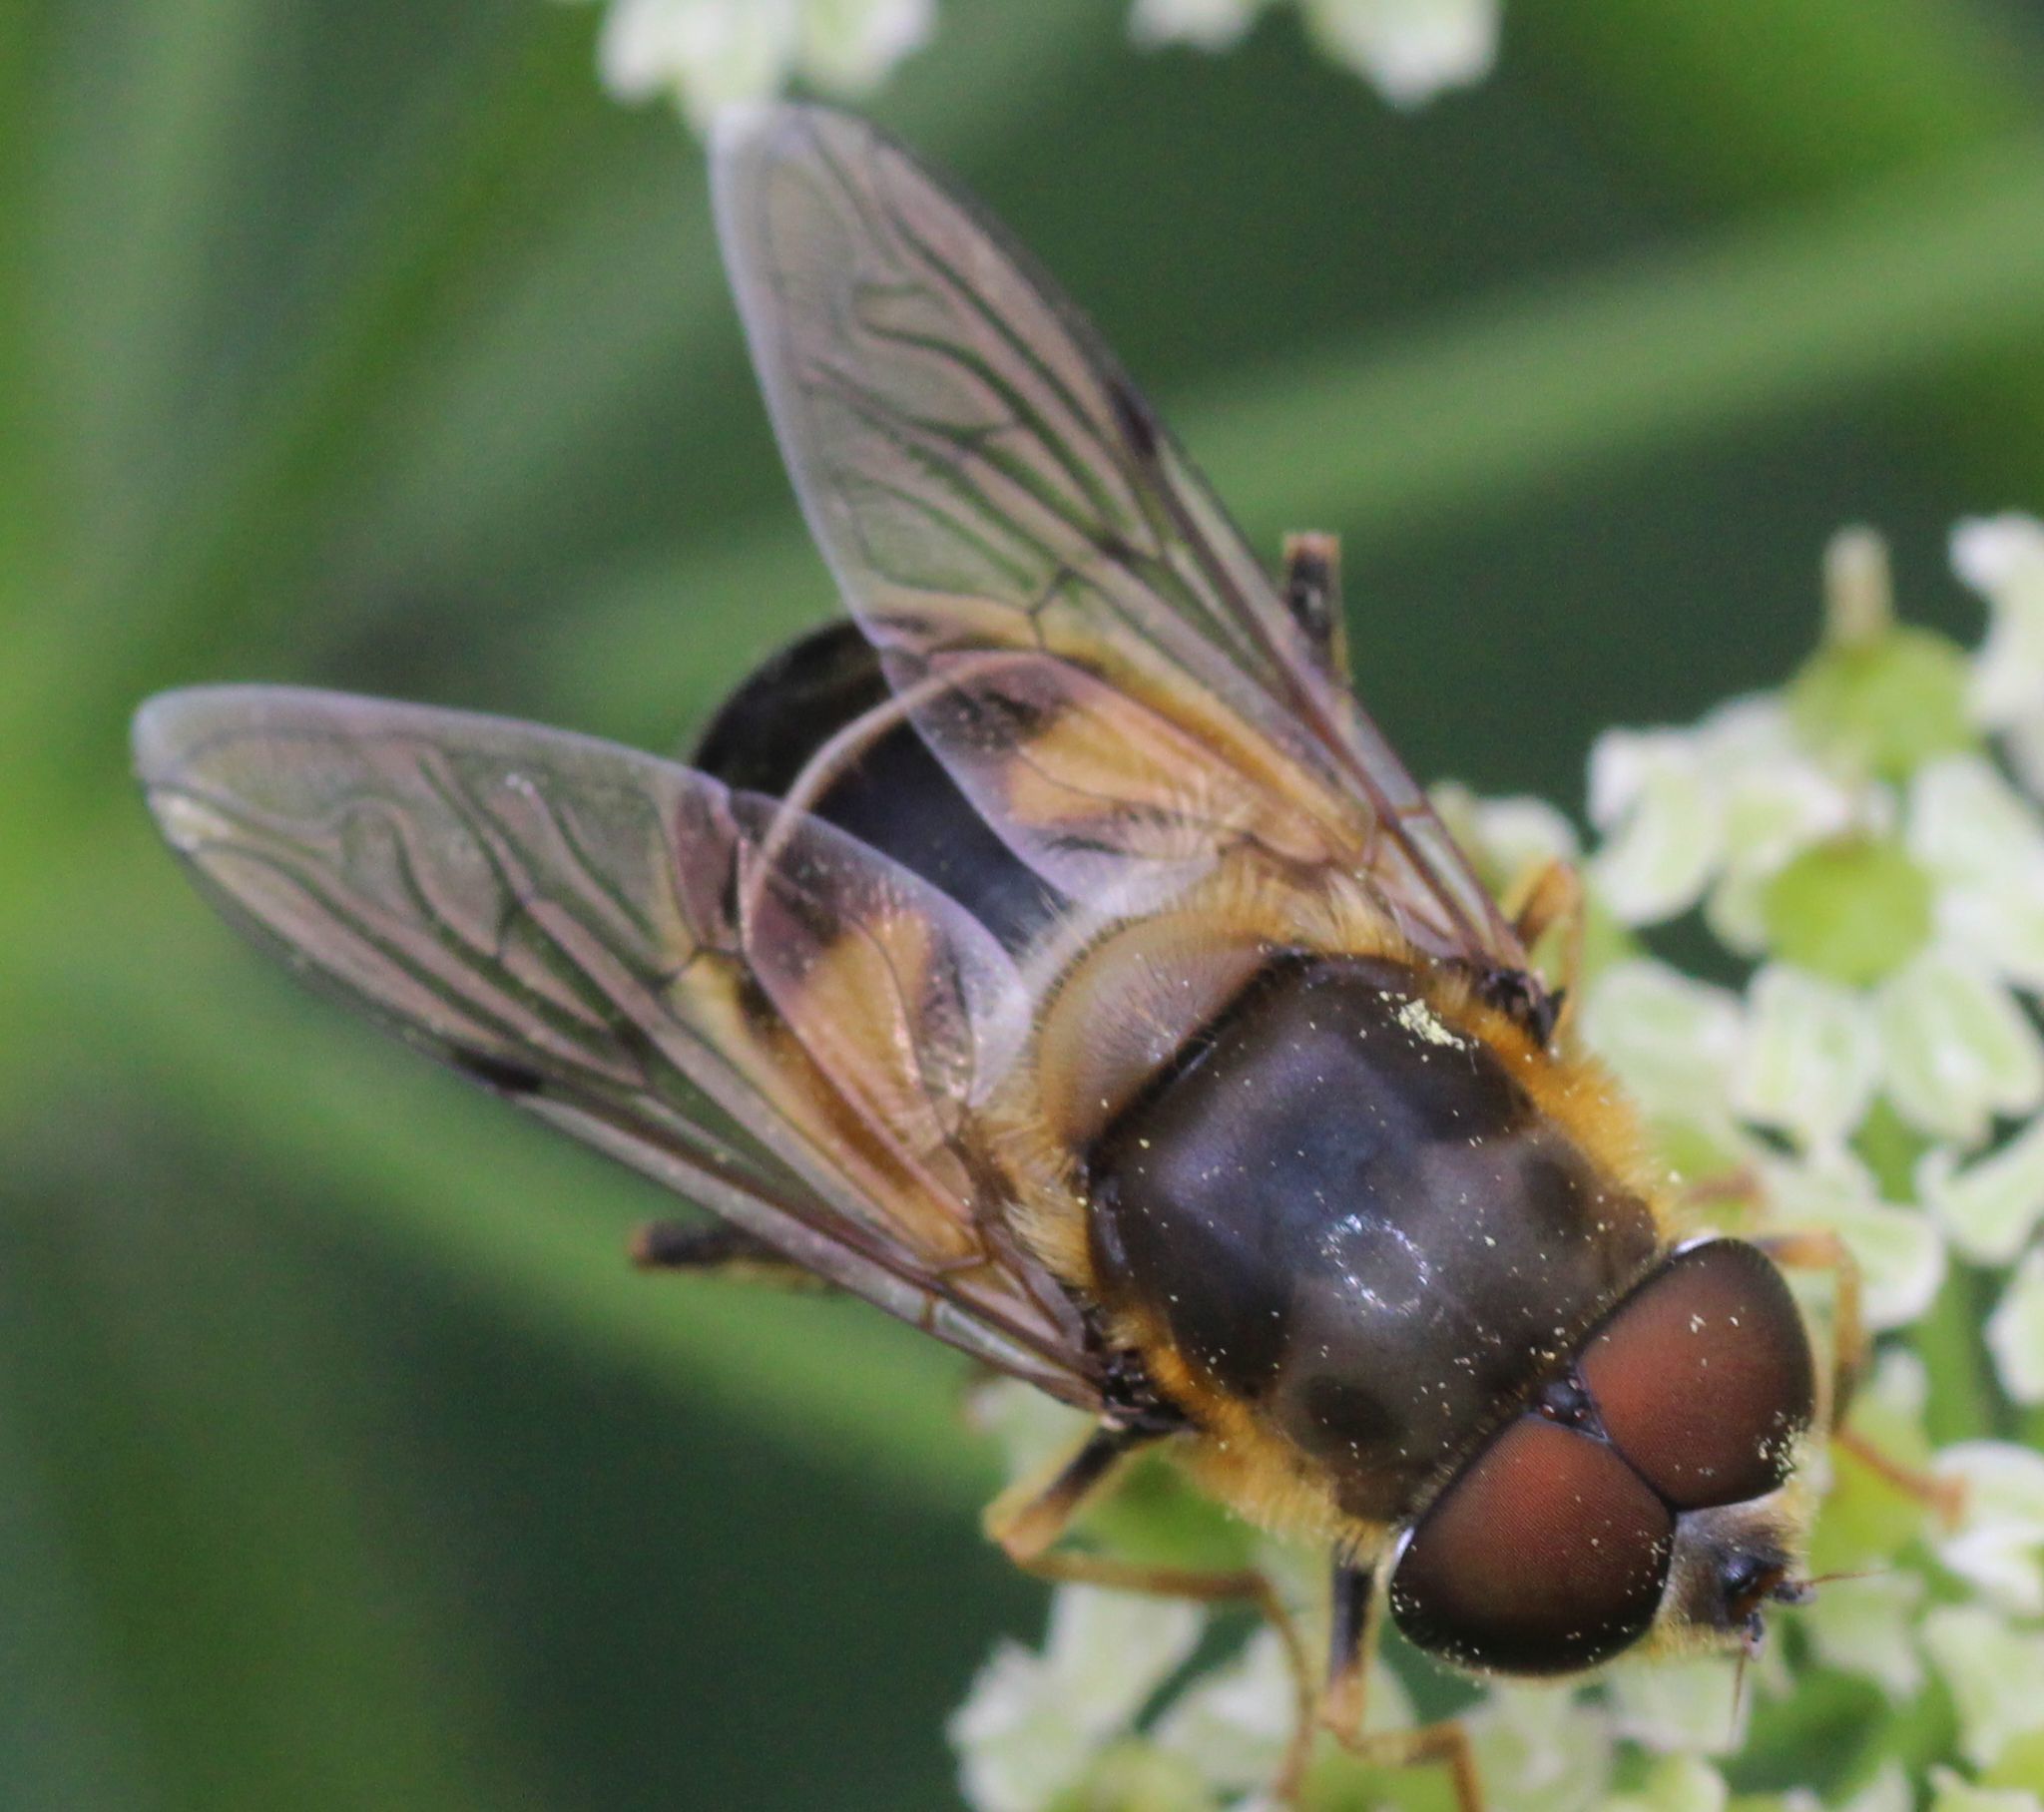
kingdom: Animalia
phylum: Arthropoda
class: Insecta
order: Diptera
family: Syrphidae
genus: Eristalis
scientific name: Eristalis pertinax
